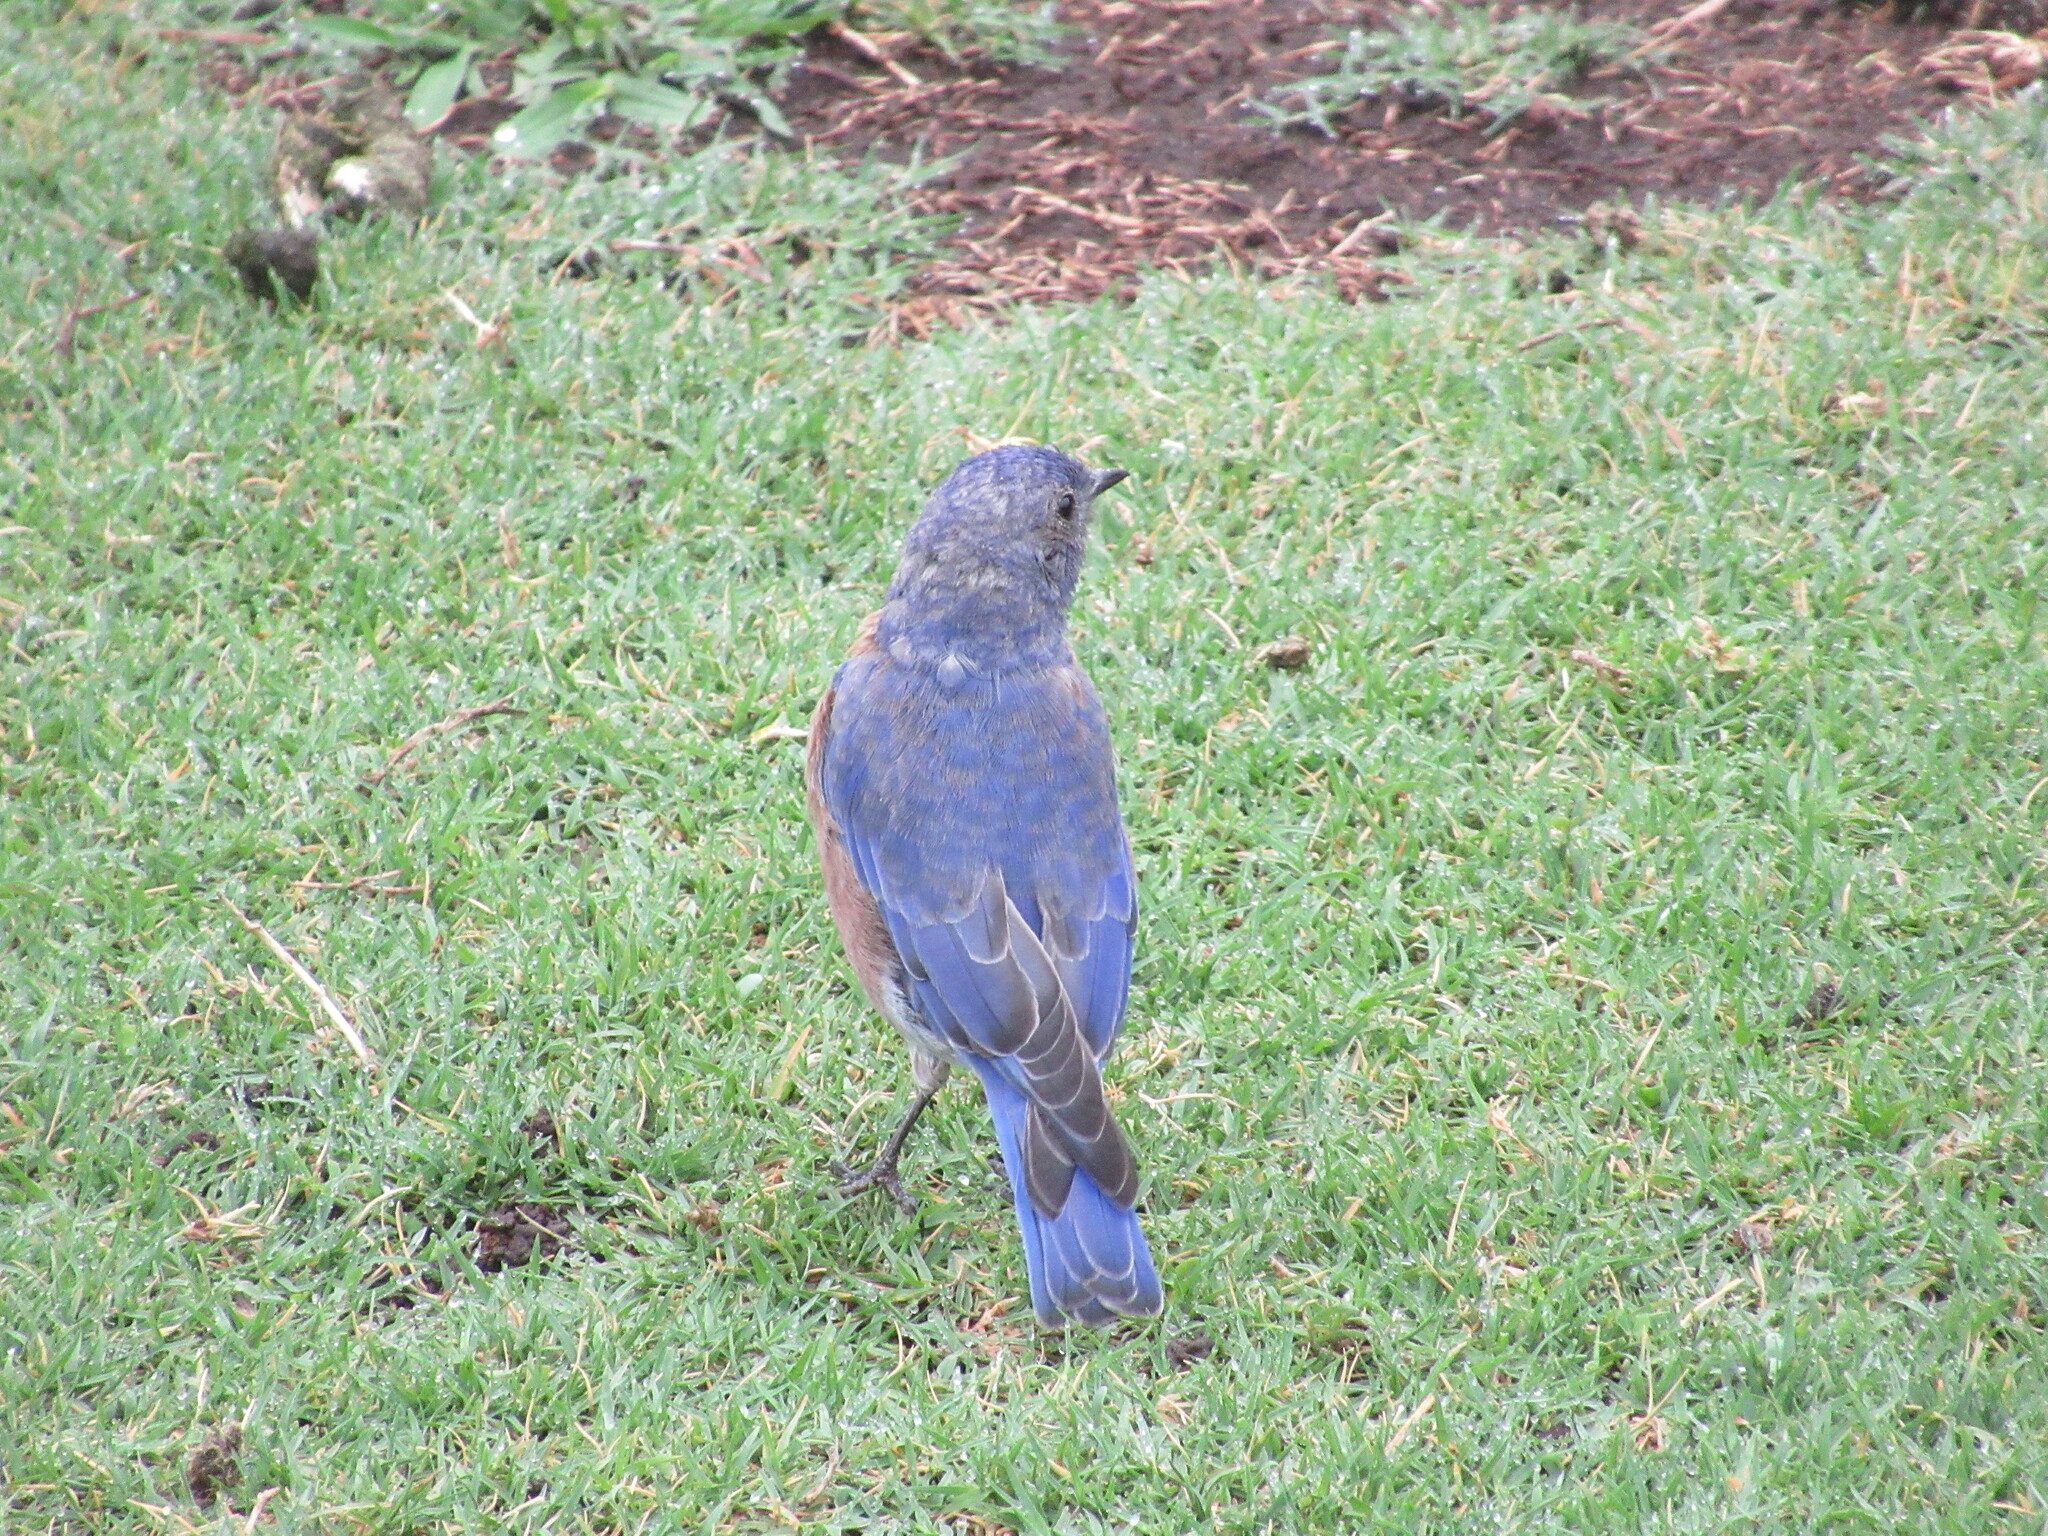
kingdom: Animalia
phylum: Chordata
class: Aves
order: Passeriformes
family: Turdidae
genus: Sialia
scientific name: Sialia mexicana
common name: Western bluebird
